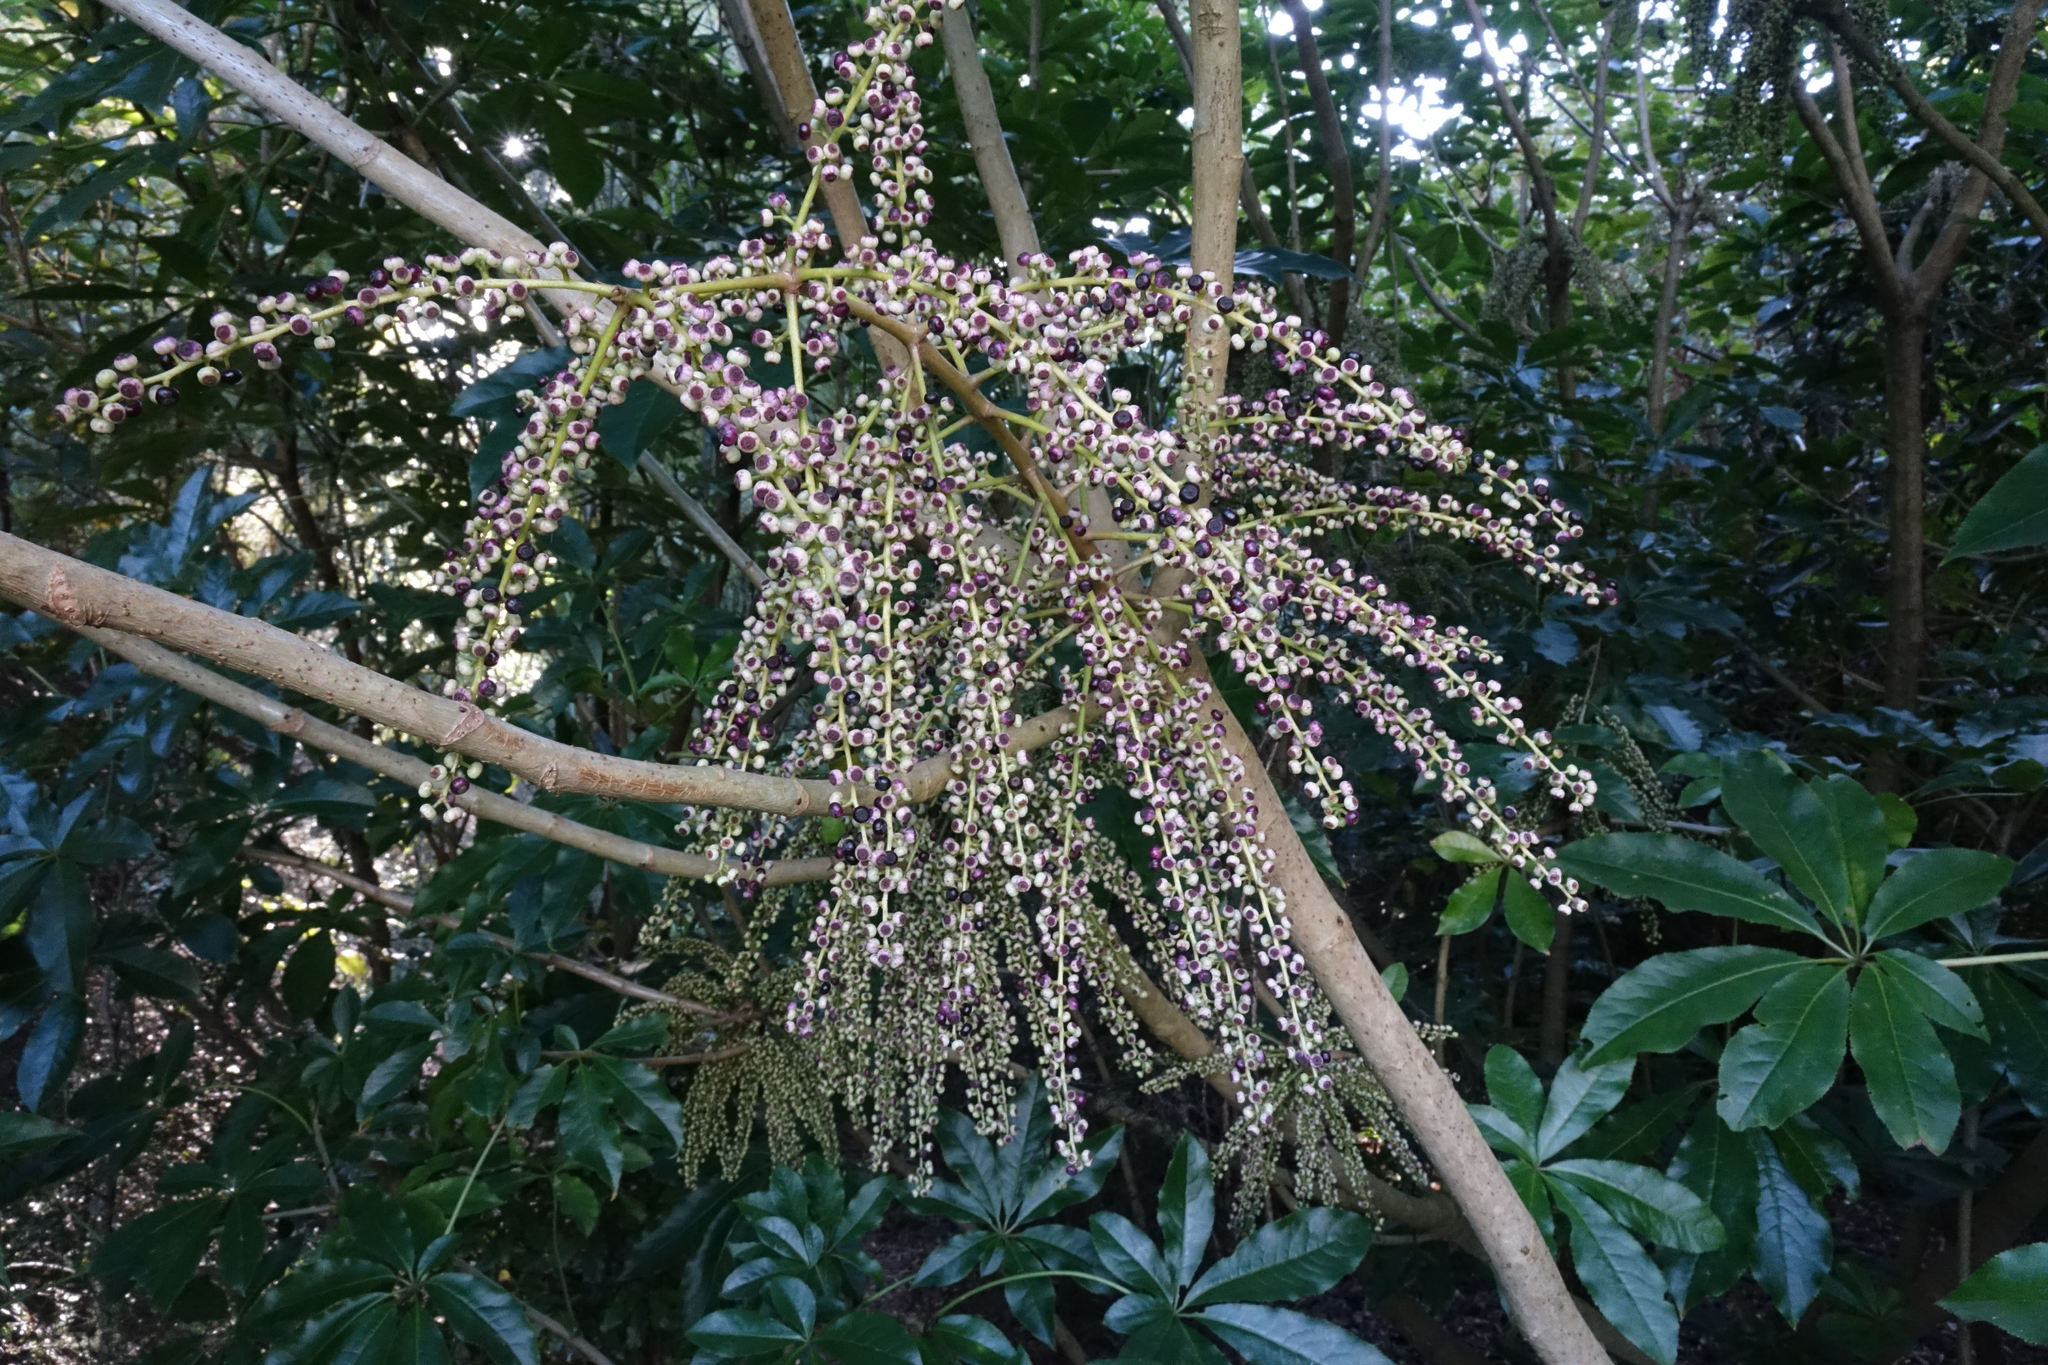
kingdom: Plantae
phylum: Tracheophyta
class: Magnoliopsida
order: Apiales
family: Araliaceae
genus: Schefflera
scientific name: Schefflera digitata
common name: Pate
